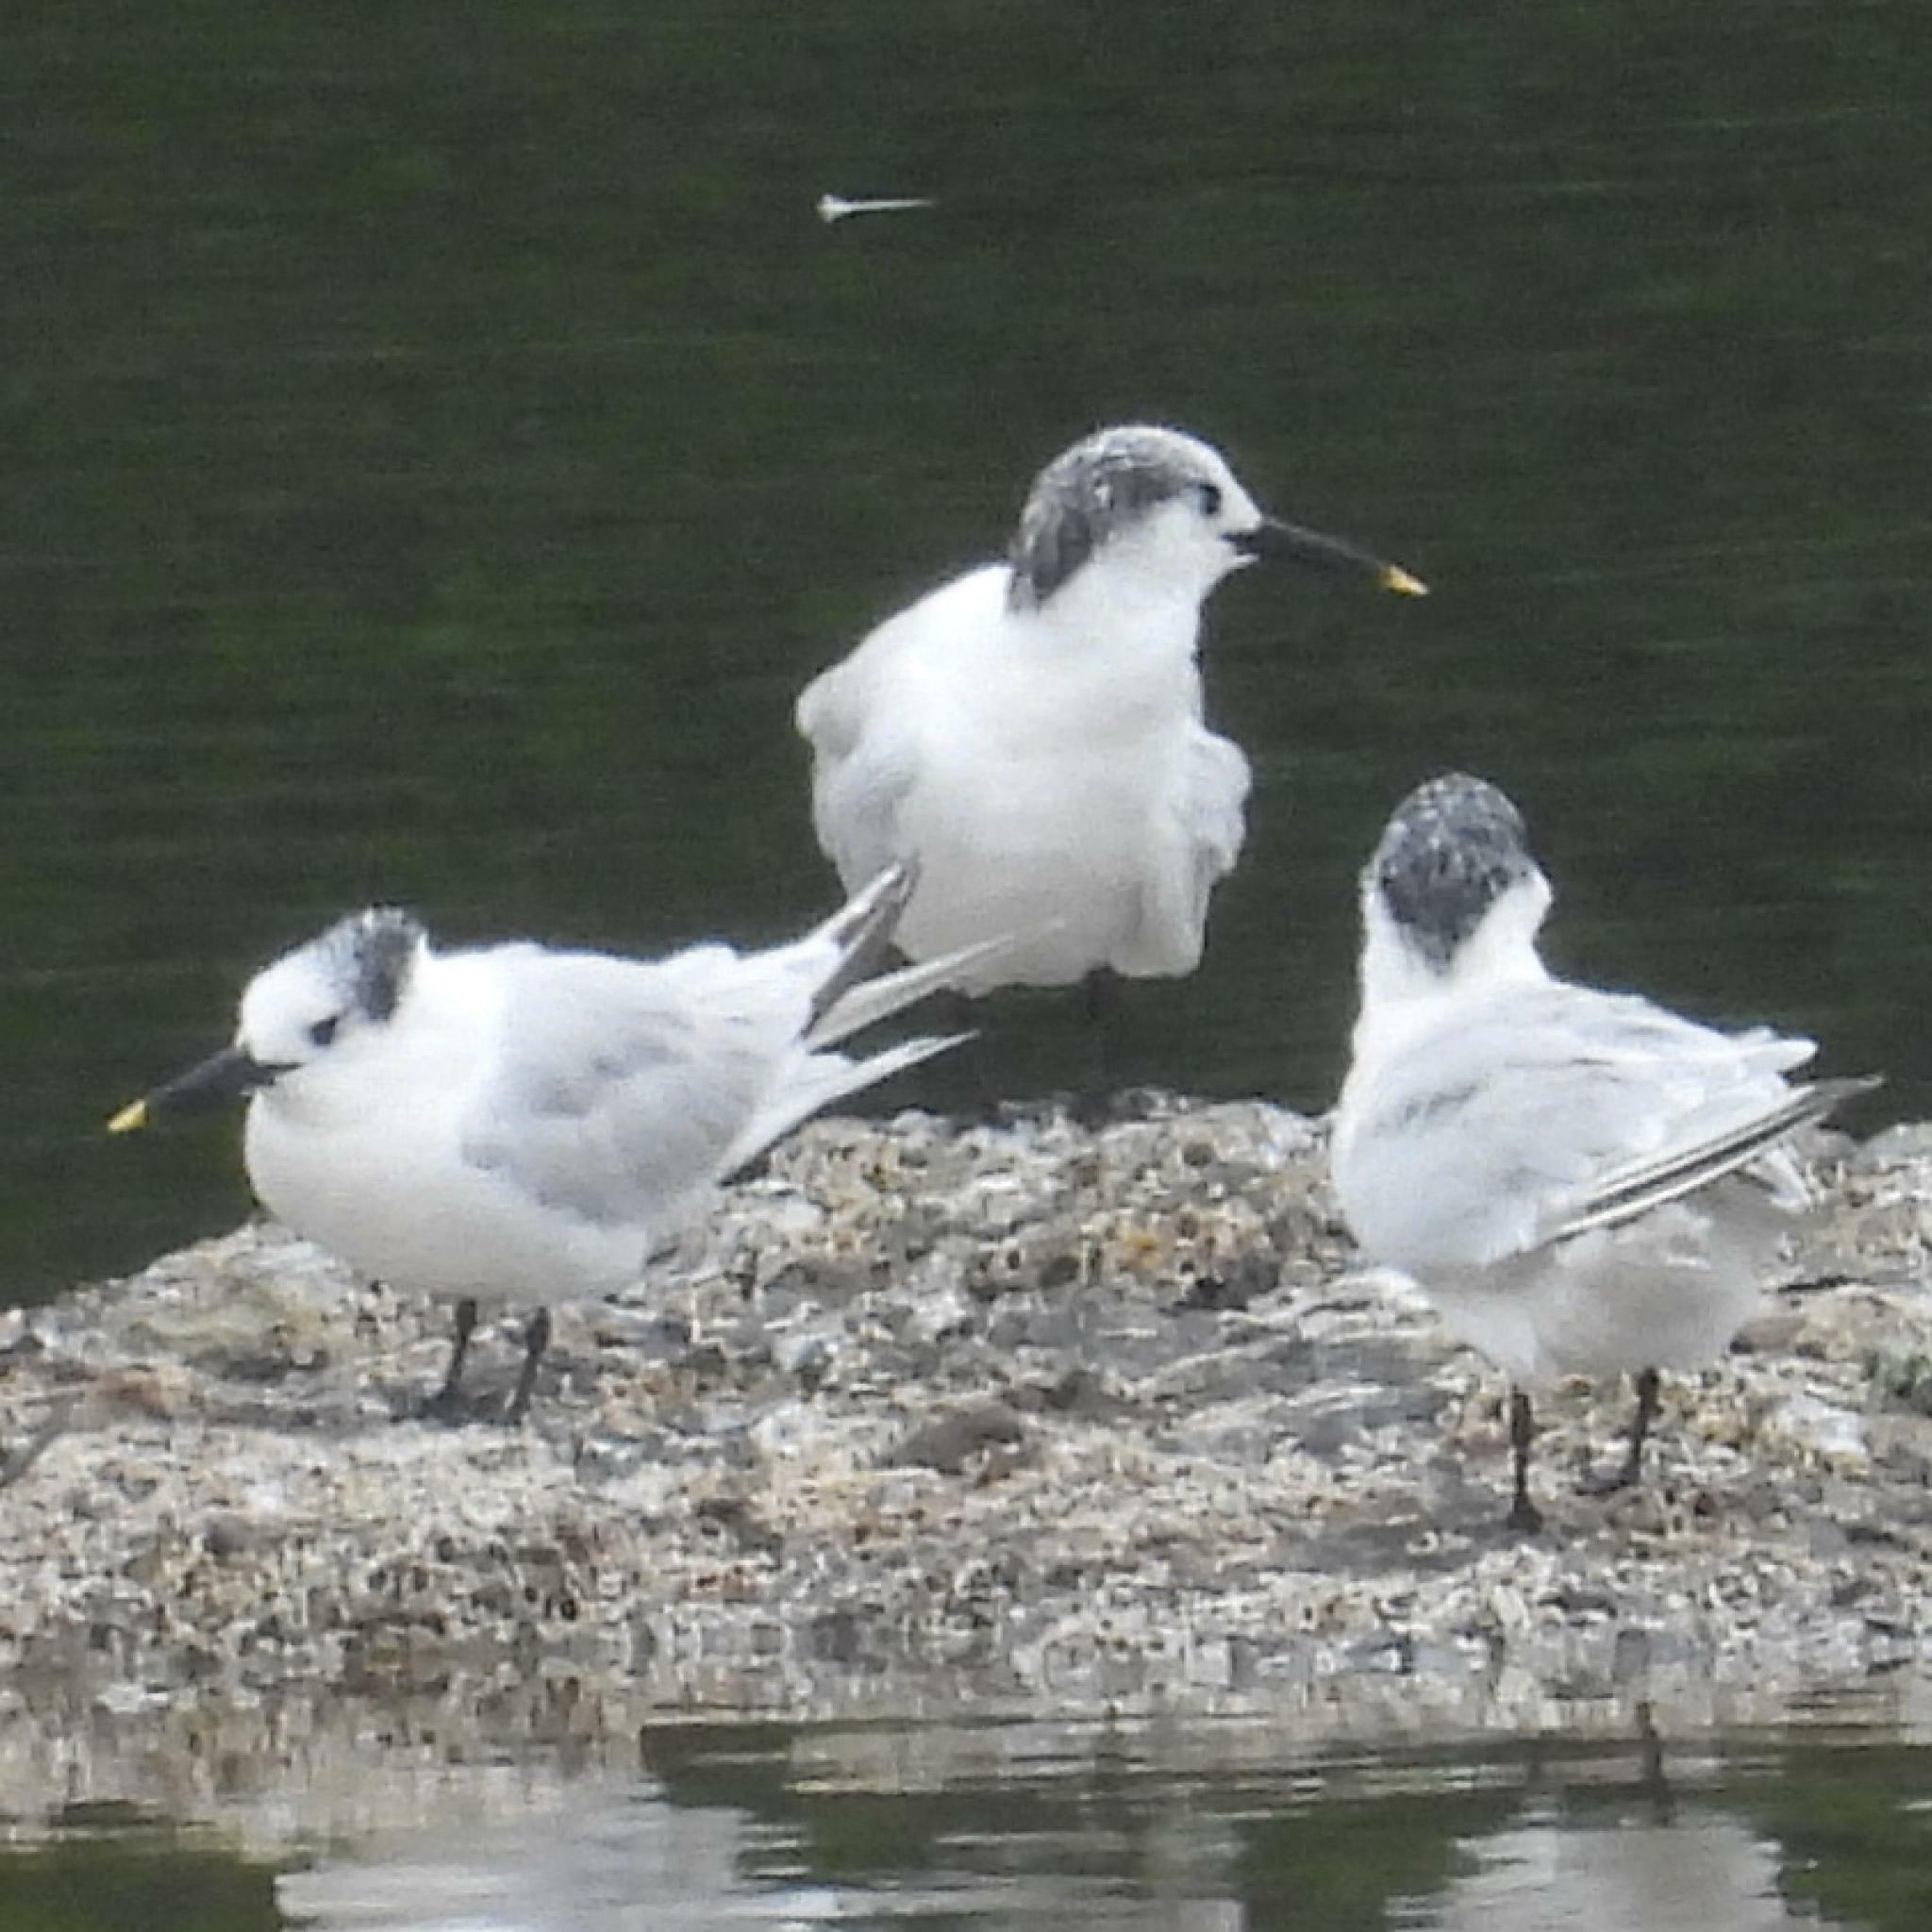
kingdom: Animalia
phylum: Chordata
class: Aves
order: Charadriiformes
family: Laridae
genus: Thalasseus
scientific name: Thalasseus sandvicensis
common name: Sandwich tern
